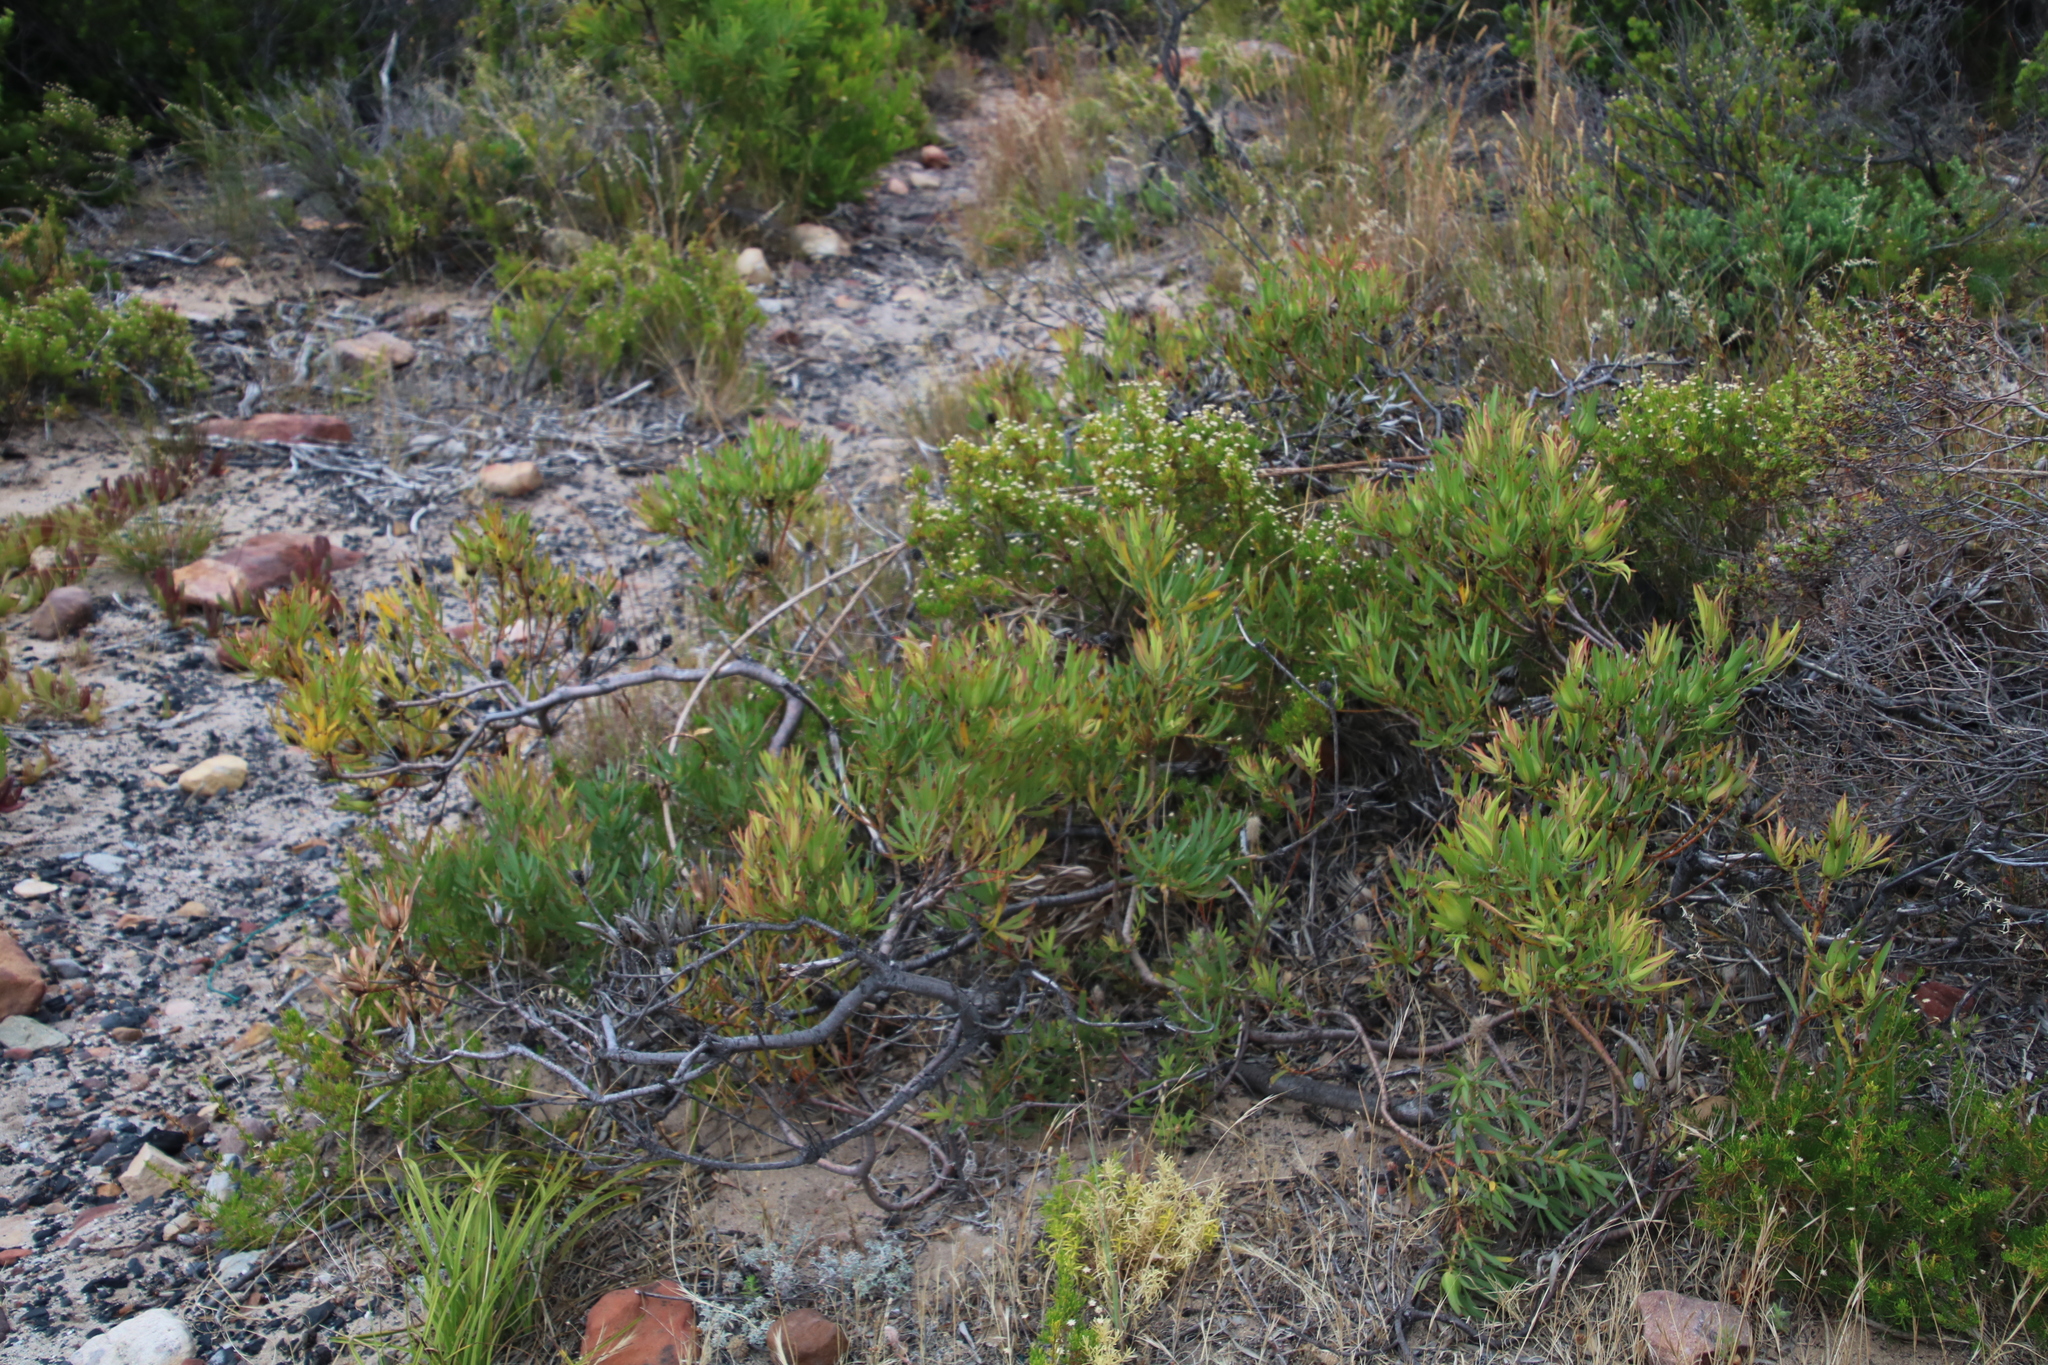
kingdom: Plantae
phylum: Tracheophyta
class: Magnoliopsida
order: Proteales
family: Proteaceae
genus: Leucadendron
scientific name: Leucadendron salignum
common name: Common sunshine conebush
